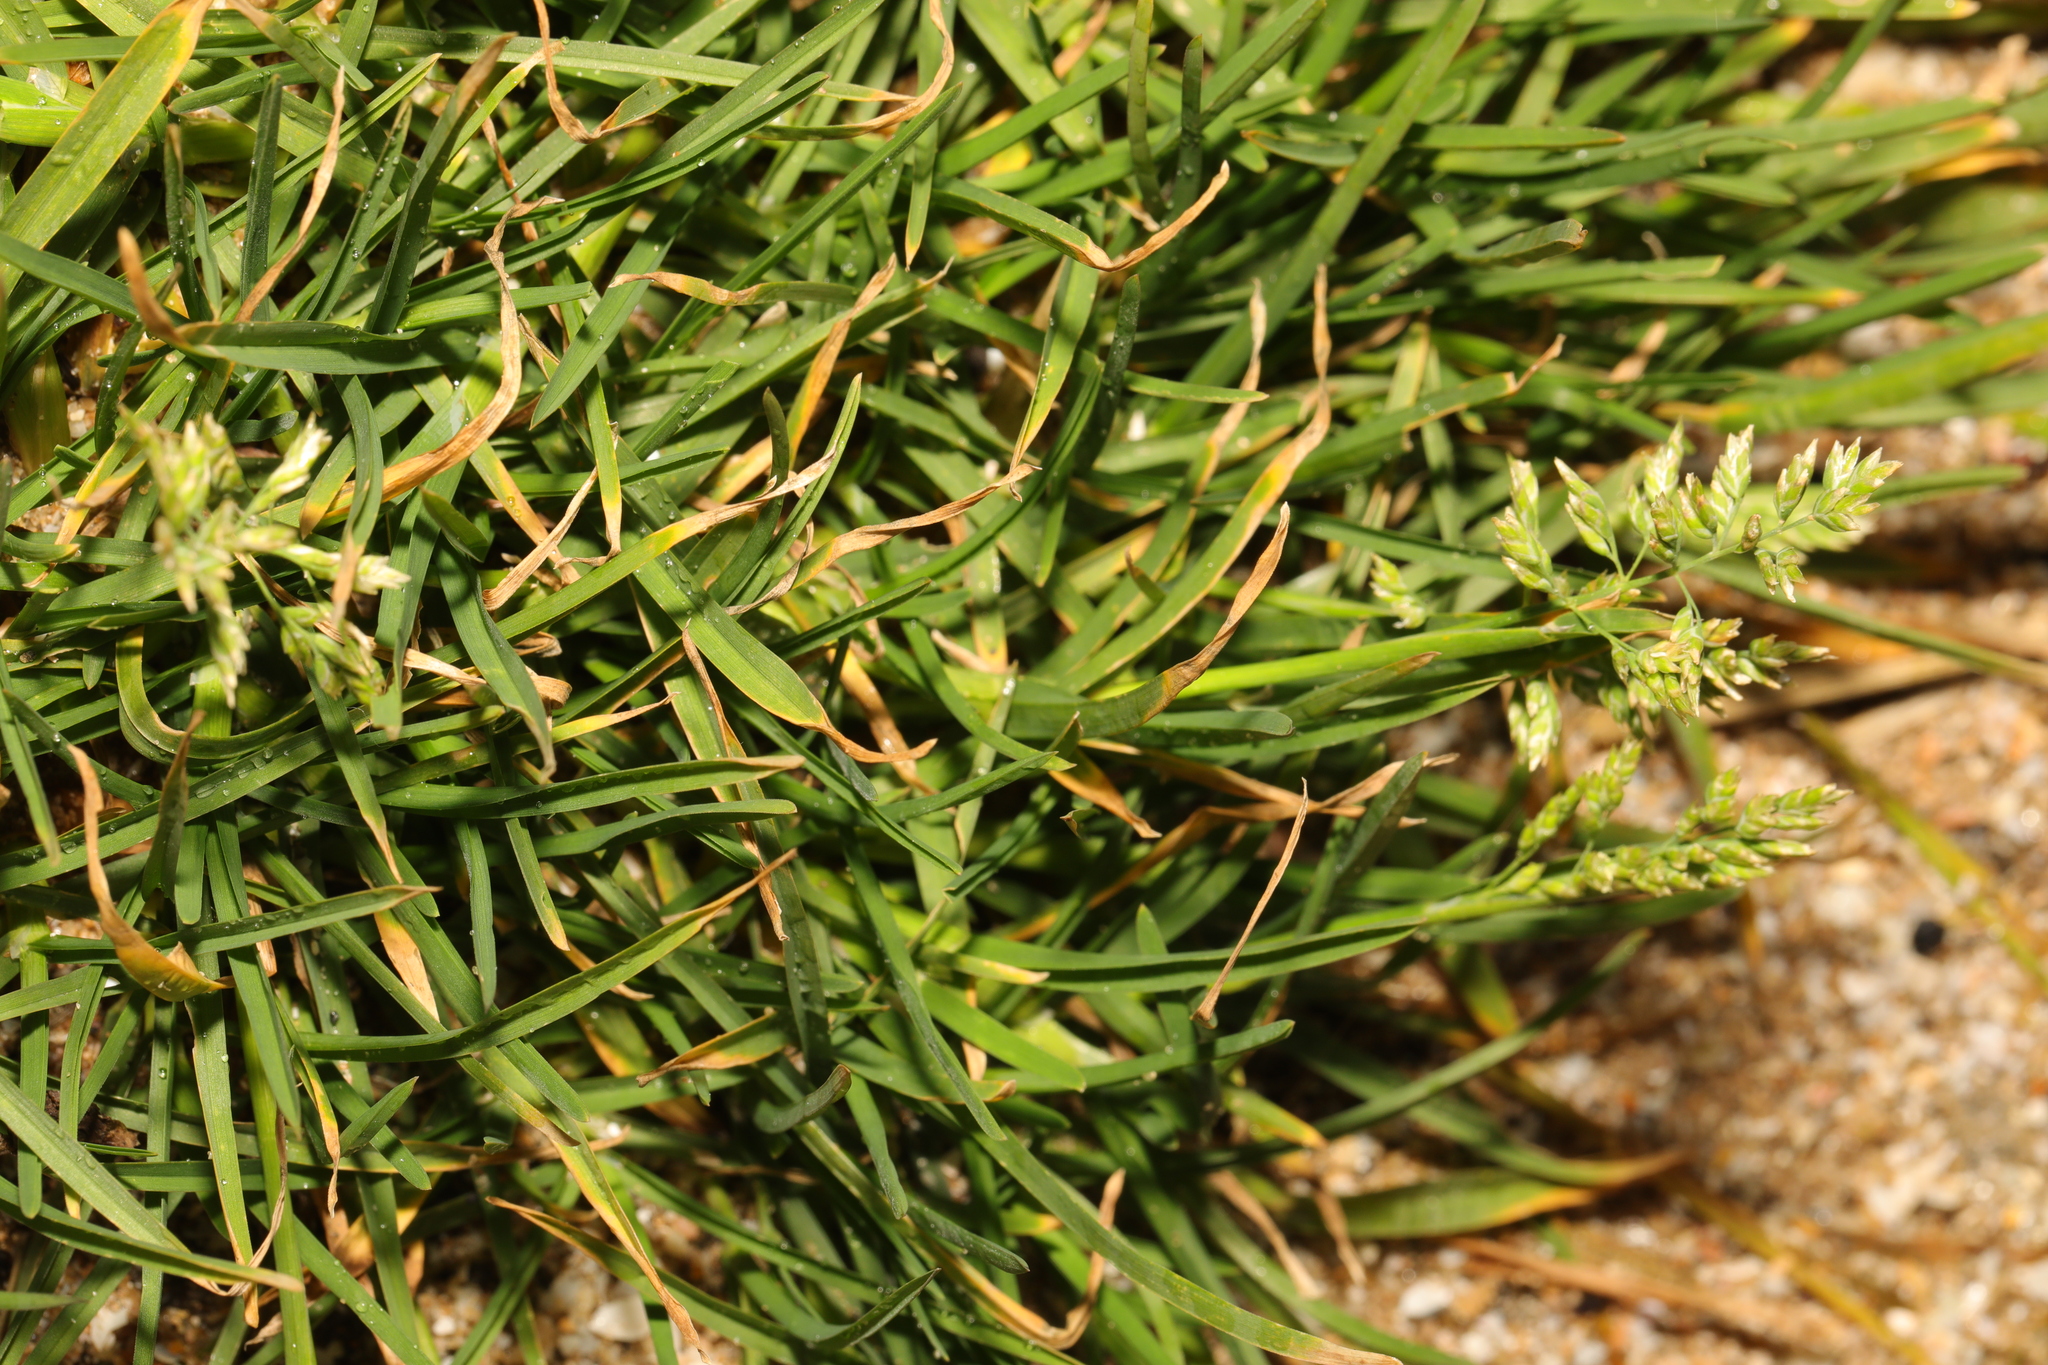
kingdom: Plantae
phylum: Tracheophyta
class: Liliopsida
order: Poales
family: Poaceae
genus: Poa
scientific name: Poa annua
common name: Annual bluegrass
